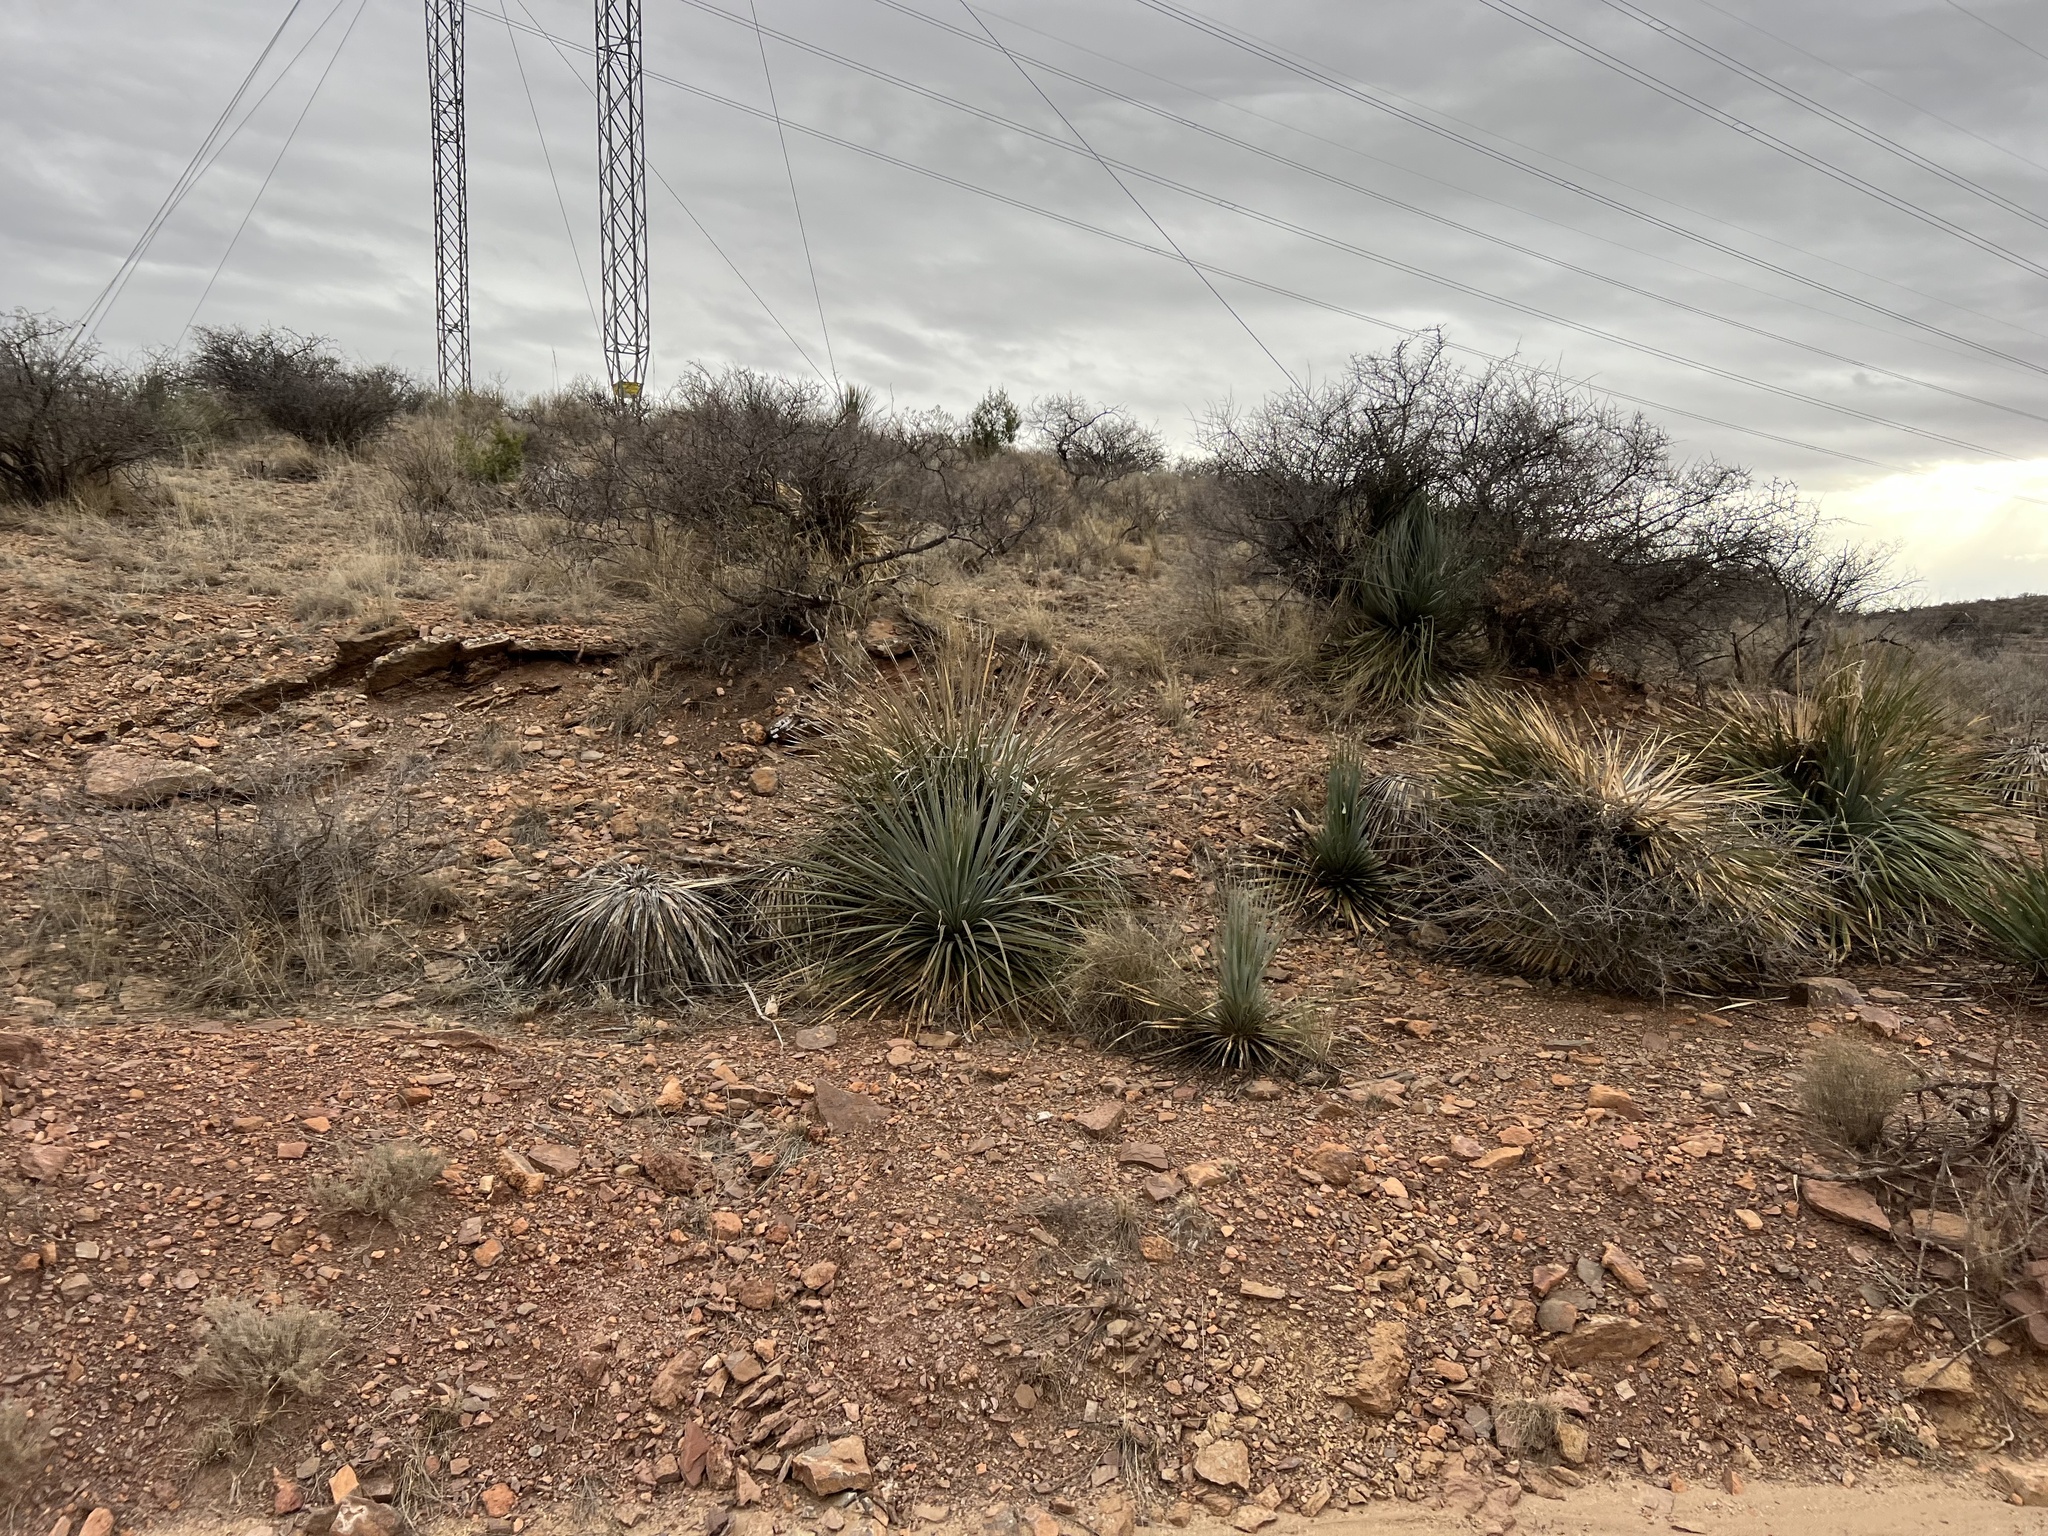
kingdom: Plantae
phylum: Tracheophyta
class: Liliopsida
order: Asparagales
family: Asparagaceae
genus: Dasylirion
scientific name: Dasylirion wheeleri
